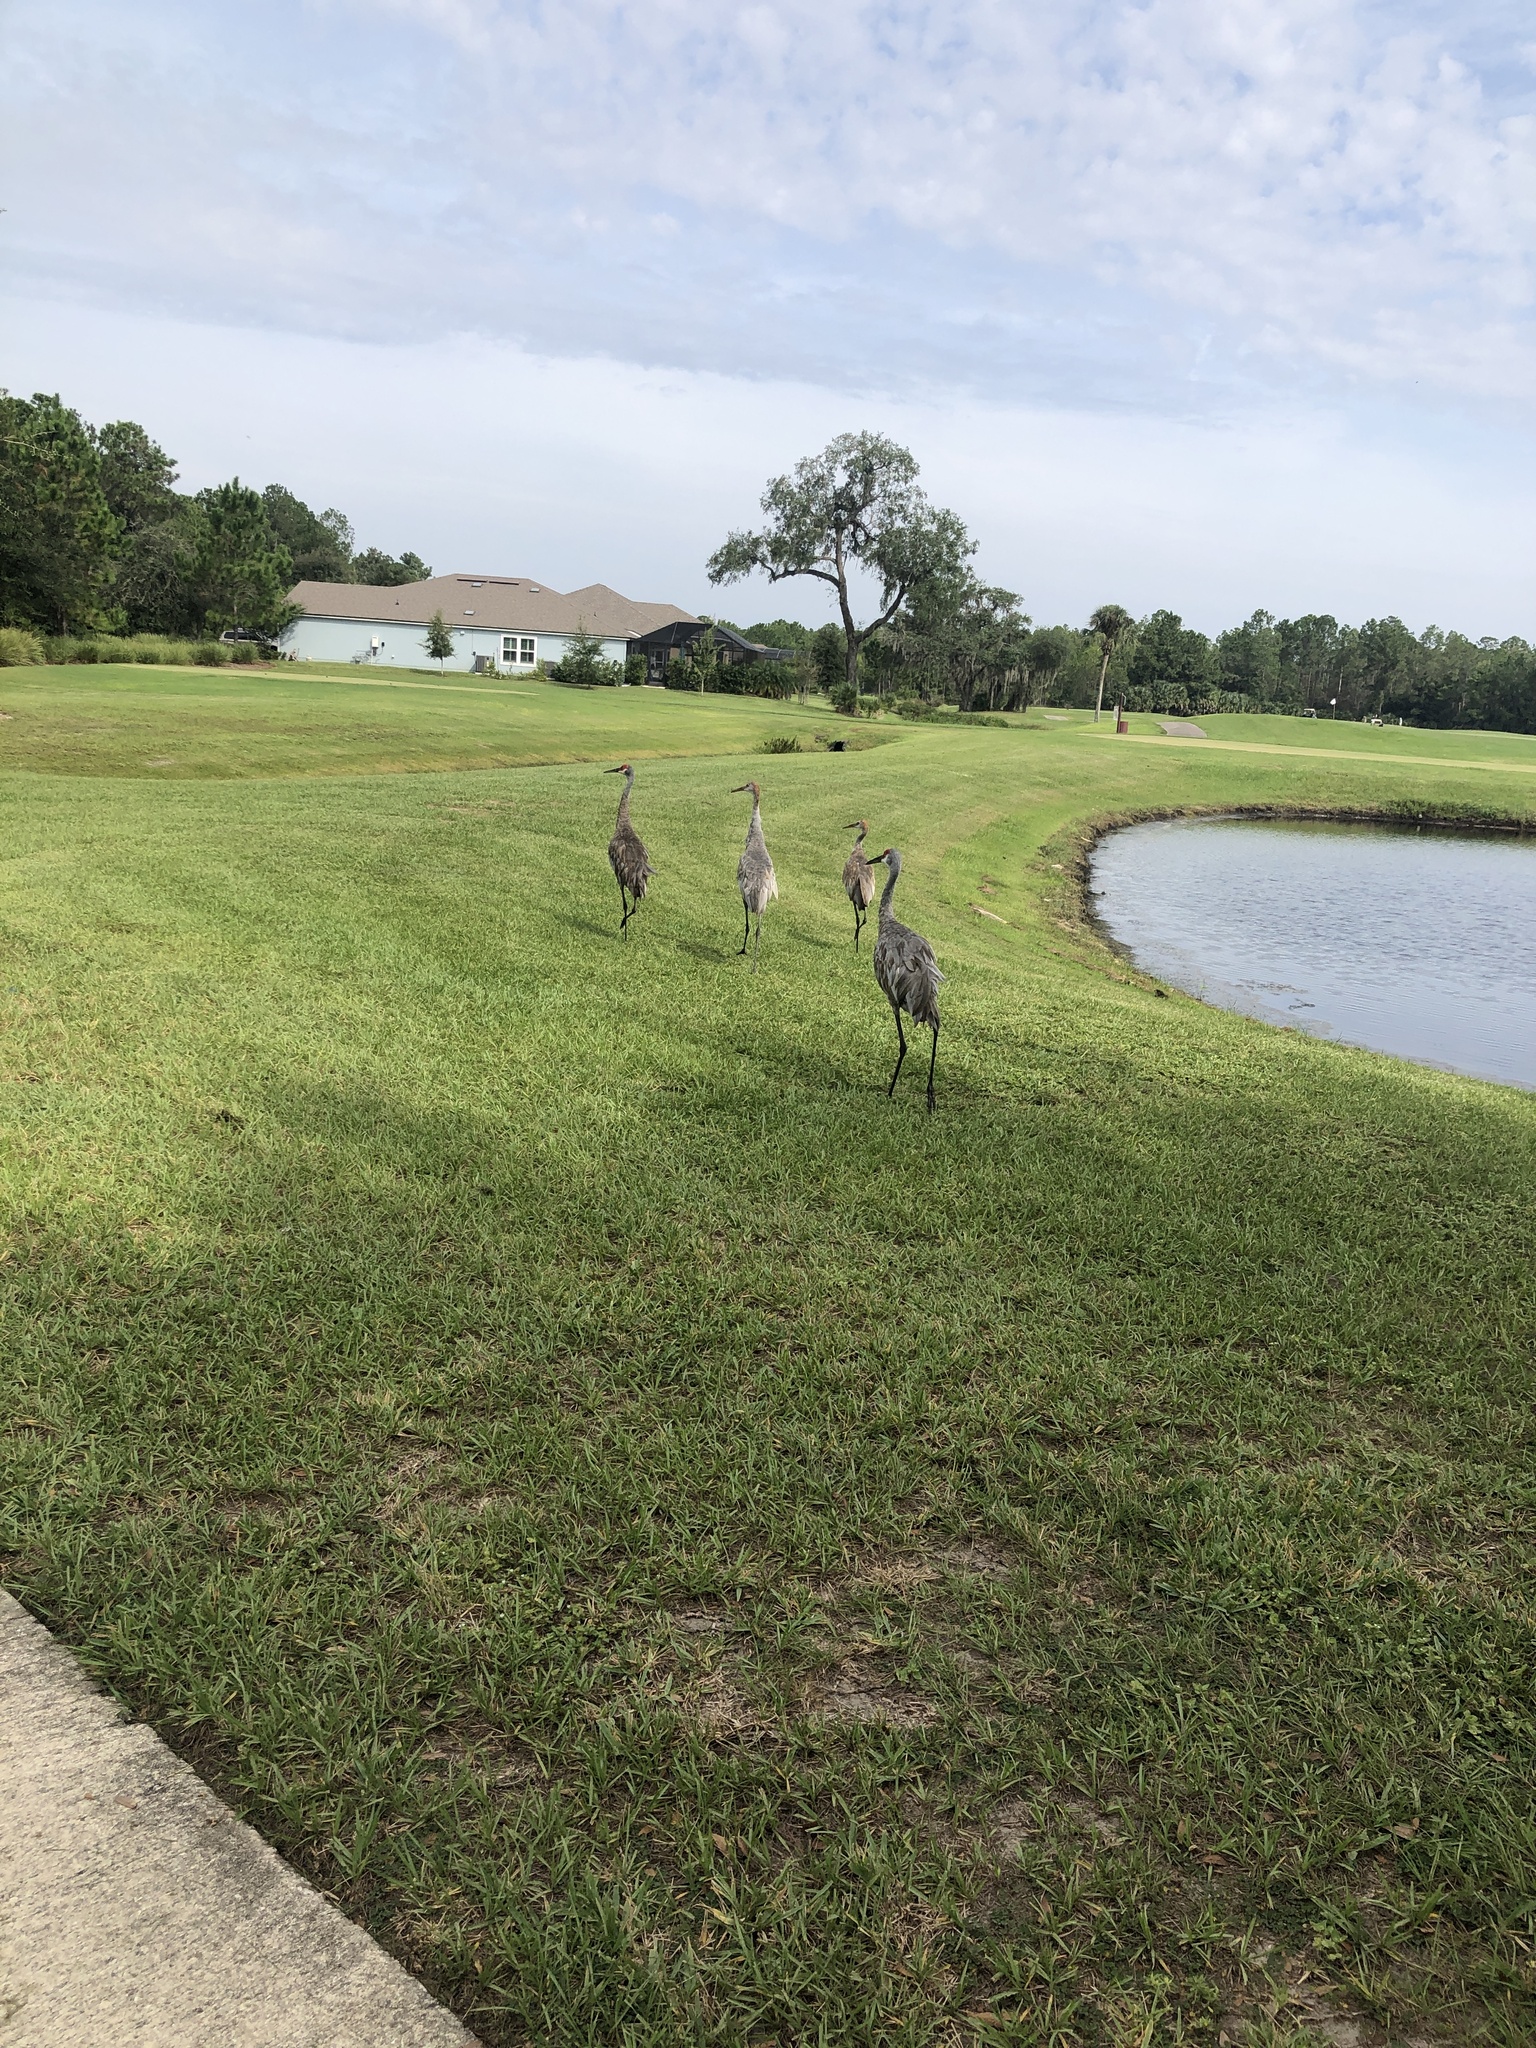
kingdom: Animalia
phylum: Chordata
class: Aves
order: Gruiformes
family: Gruidae
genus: Grus
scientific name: Grus canadensis
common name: Sandhill crane
